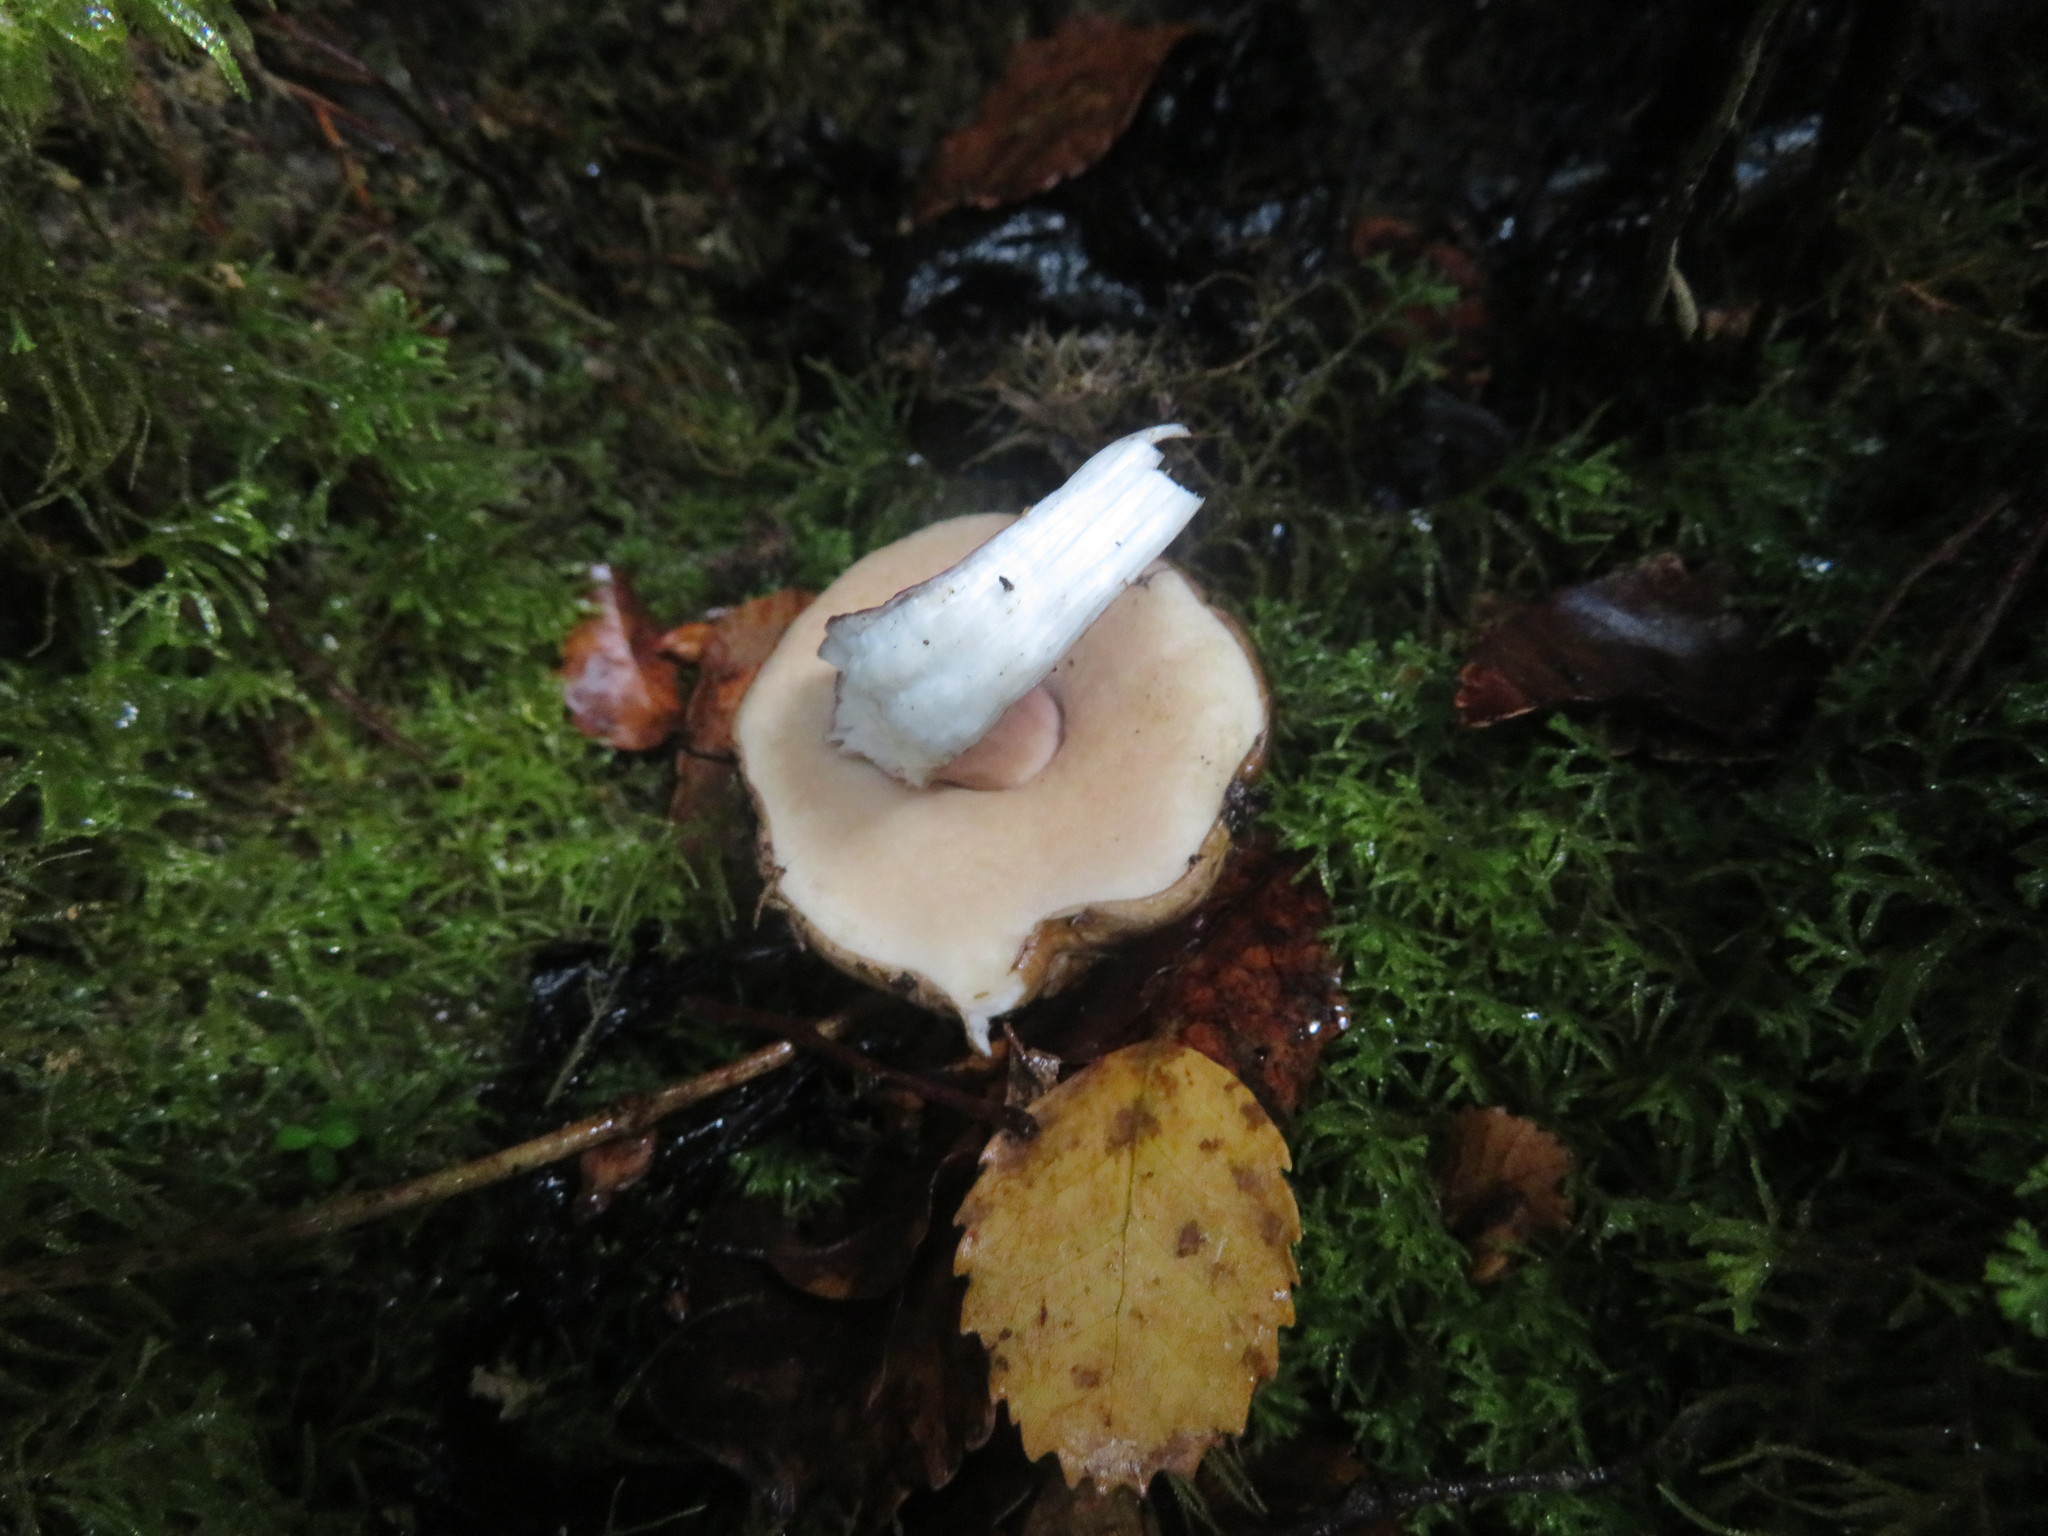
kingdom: Fungi
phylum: Basidiomycota
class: Agaricomycetes
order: Boletales
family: Boletaceae
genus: Porphyrellus
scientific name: Porphyrellus formosus
